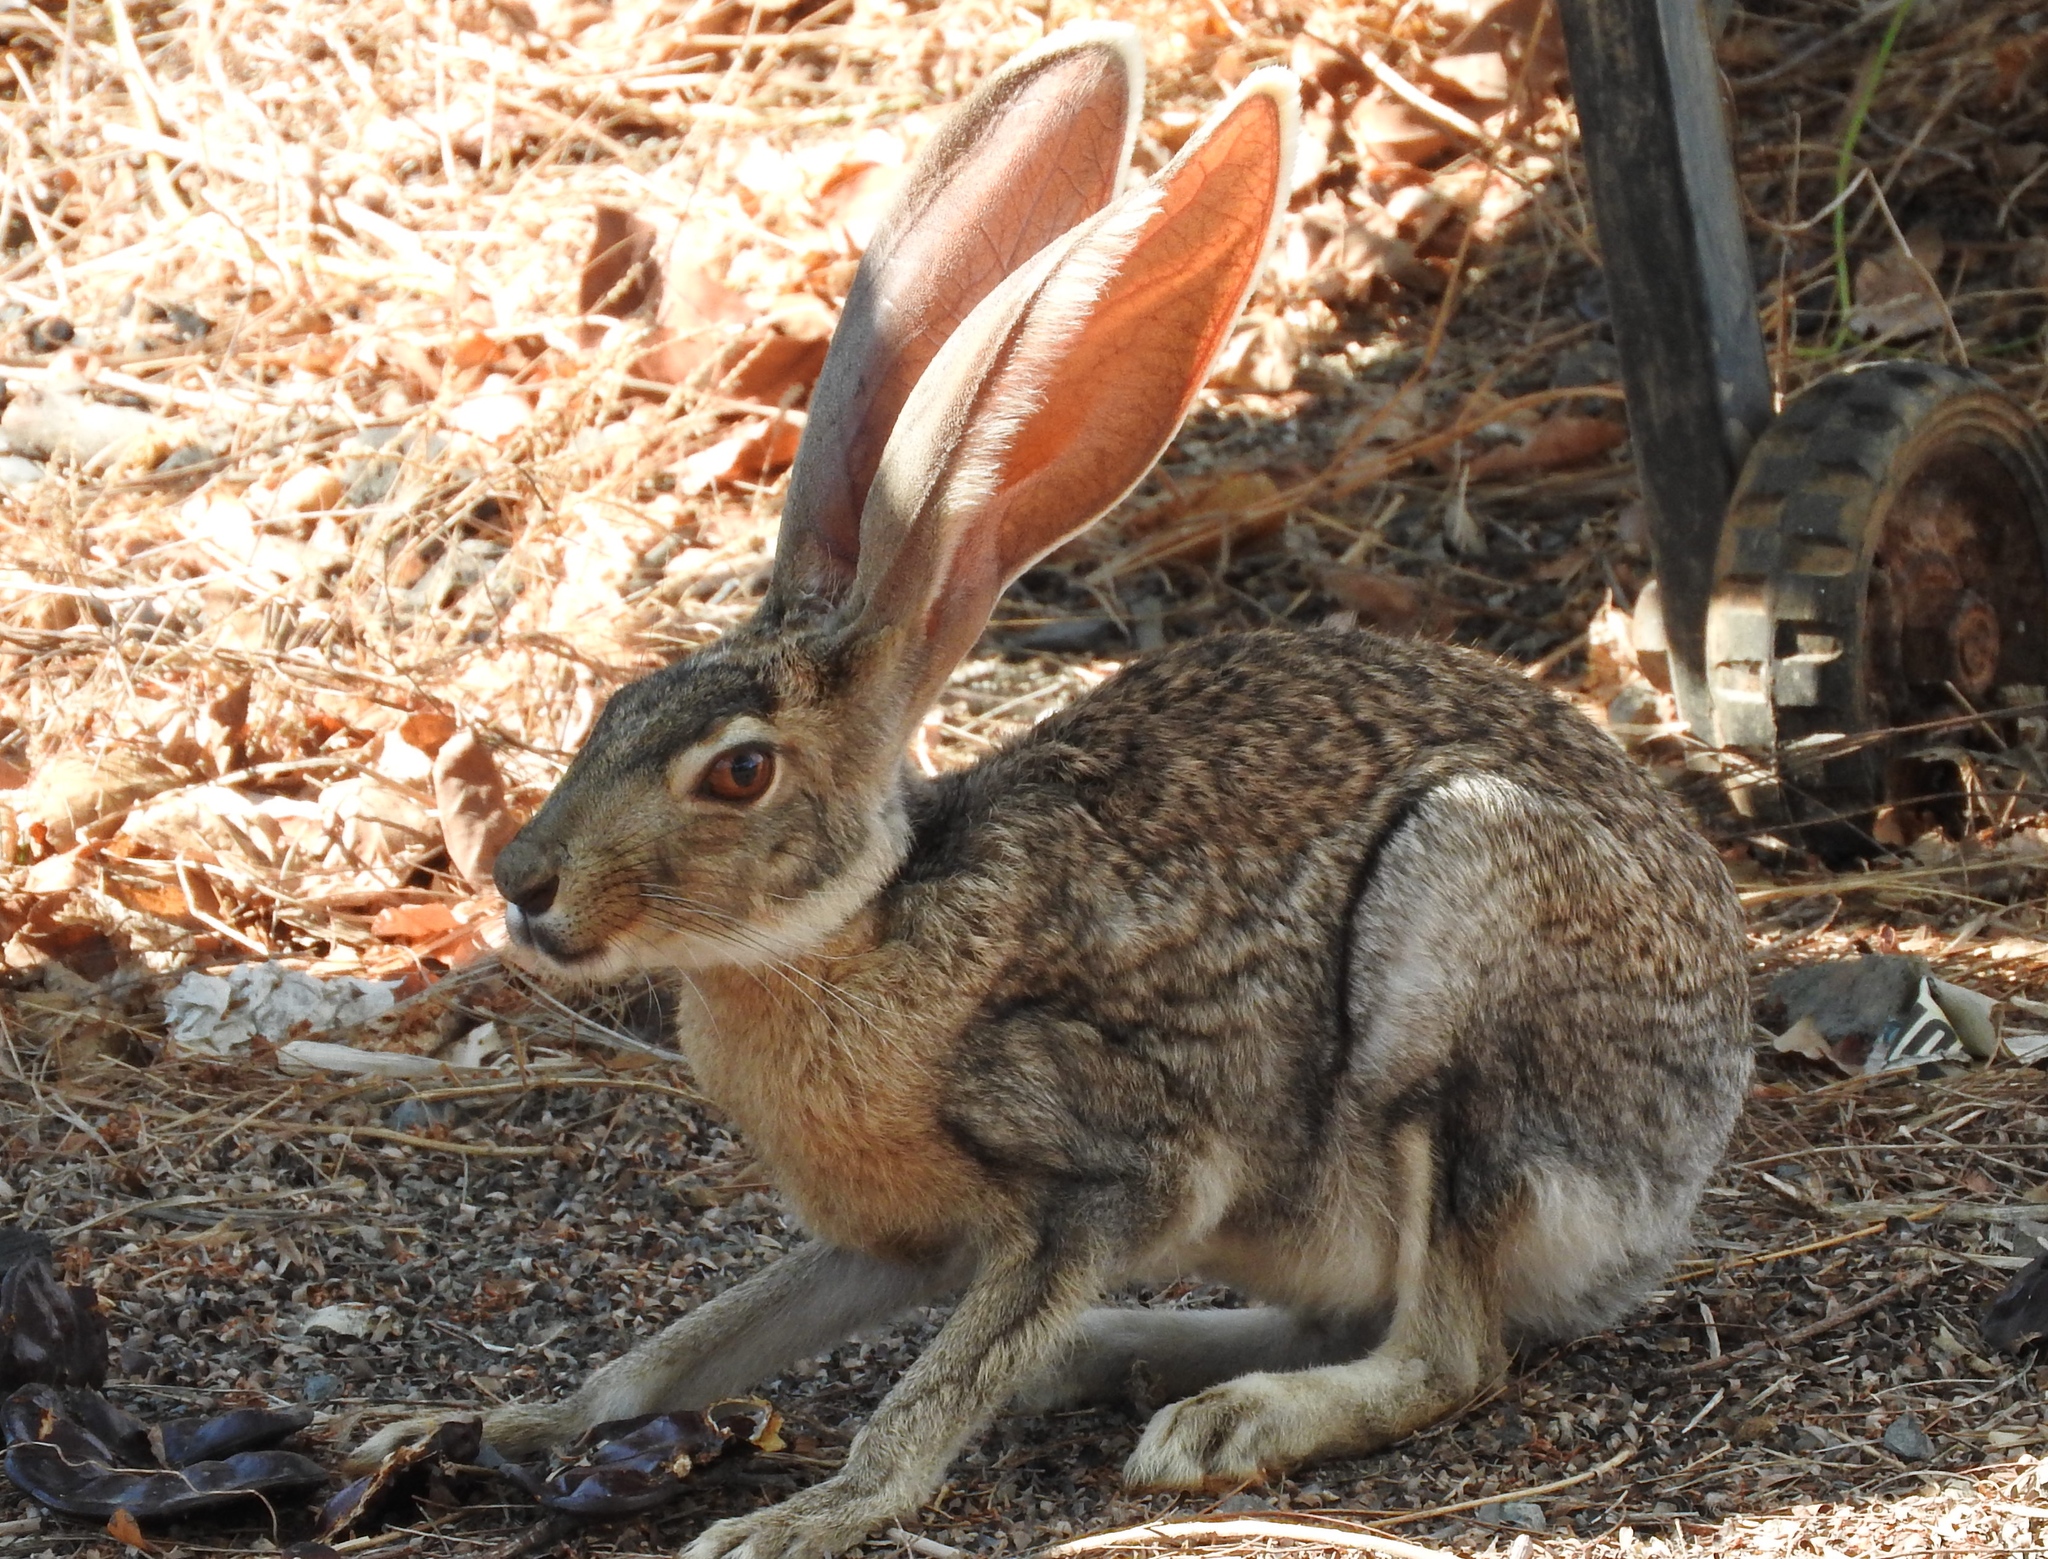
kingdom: Animalia
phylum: Chordata
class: Mammalia
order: Lagomorpha
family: Leporidae
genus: Lepus
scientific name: Lepus alleni
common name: Antelope jackrabbit
